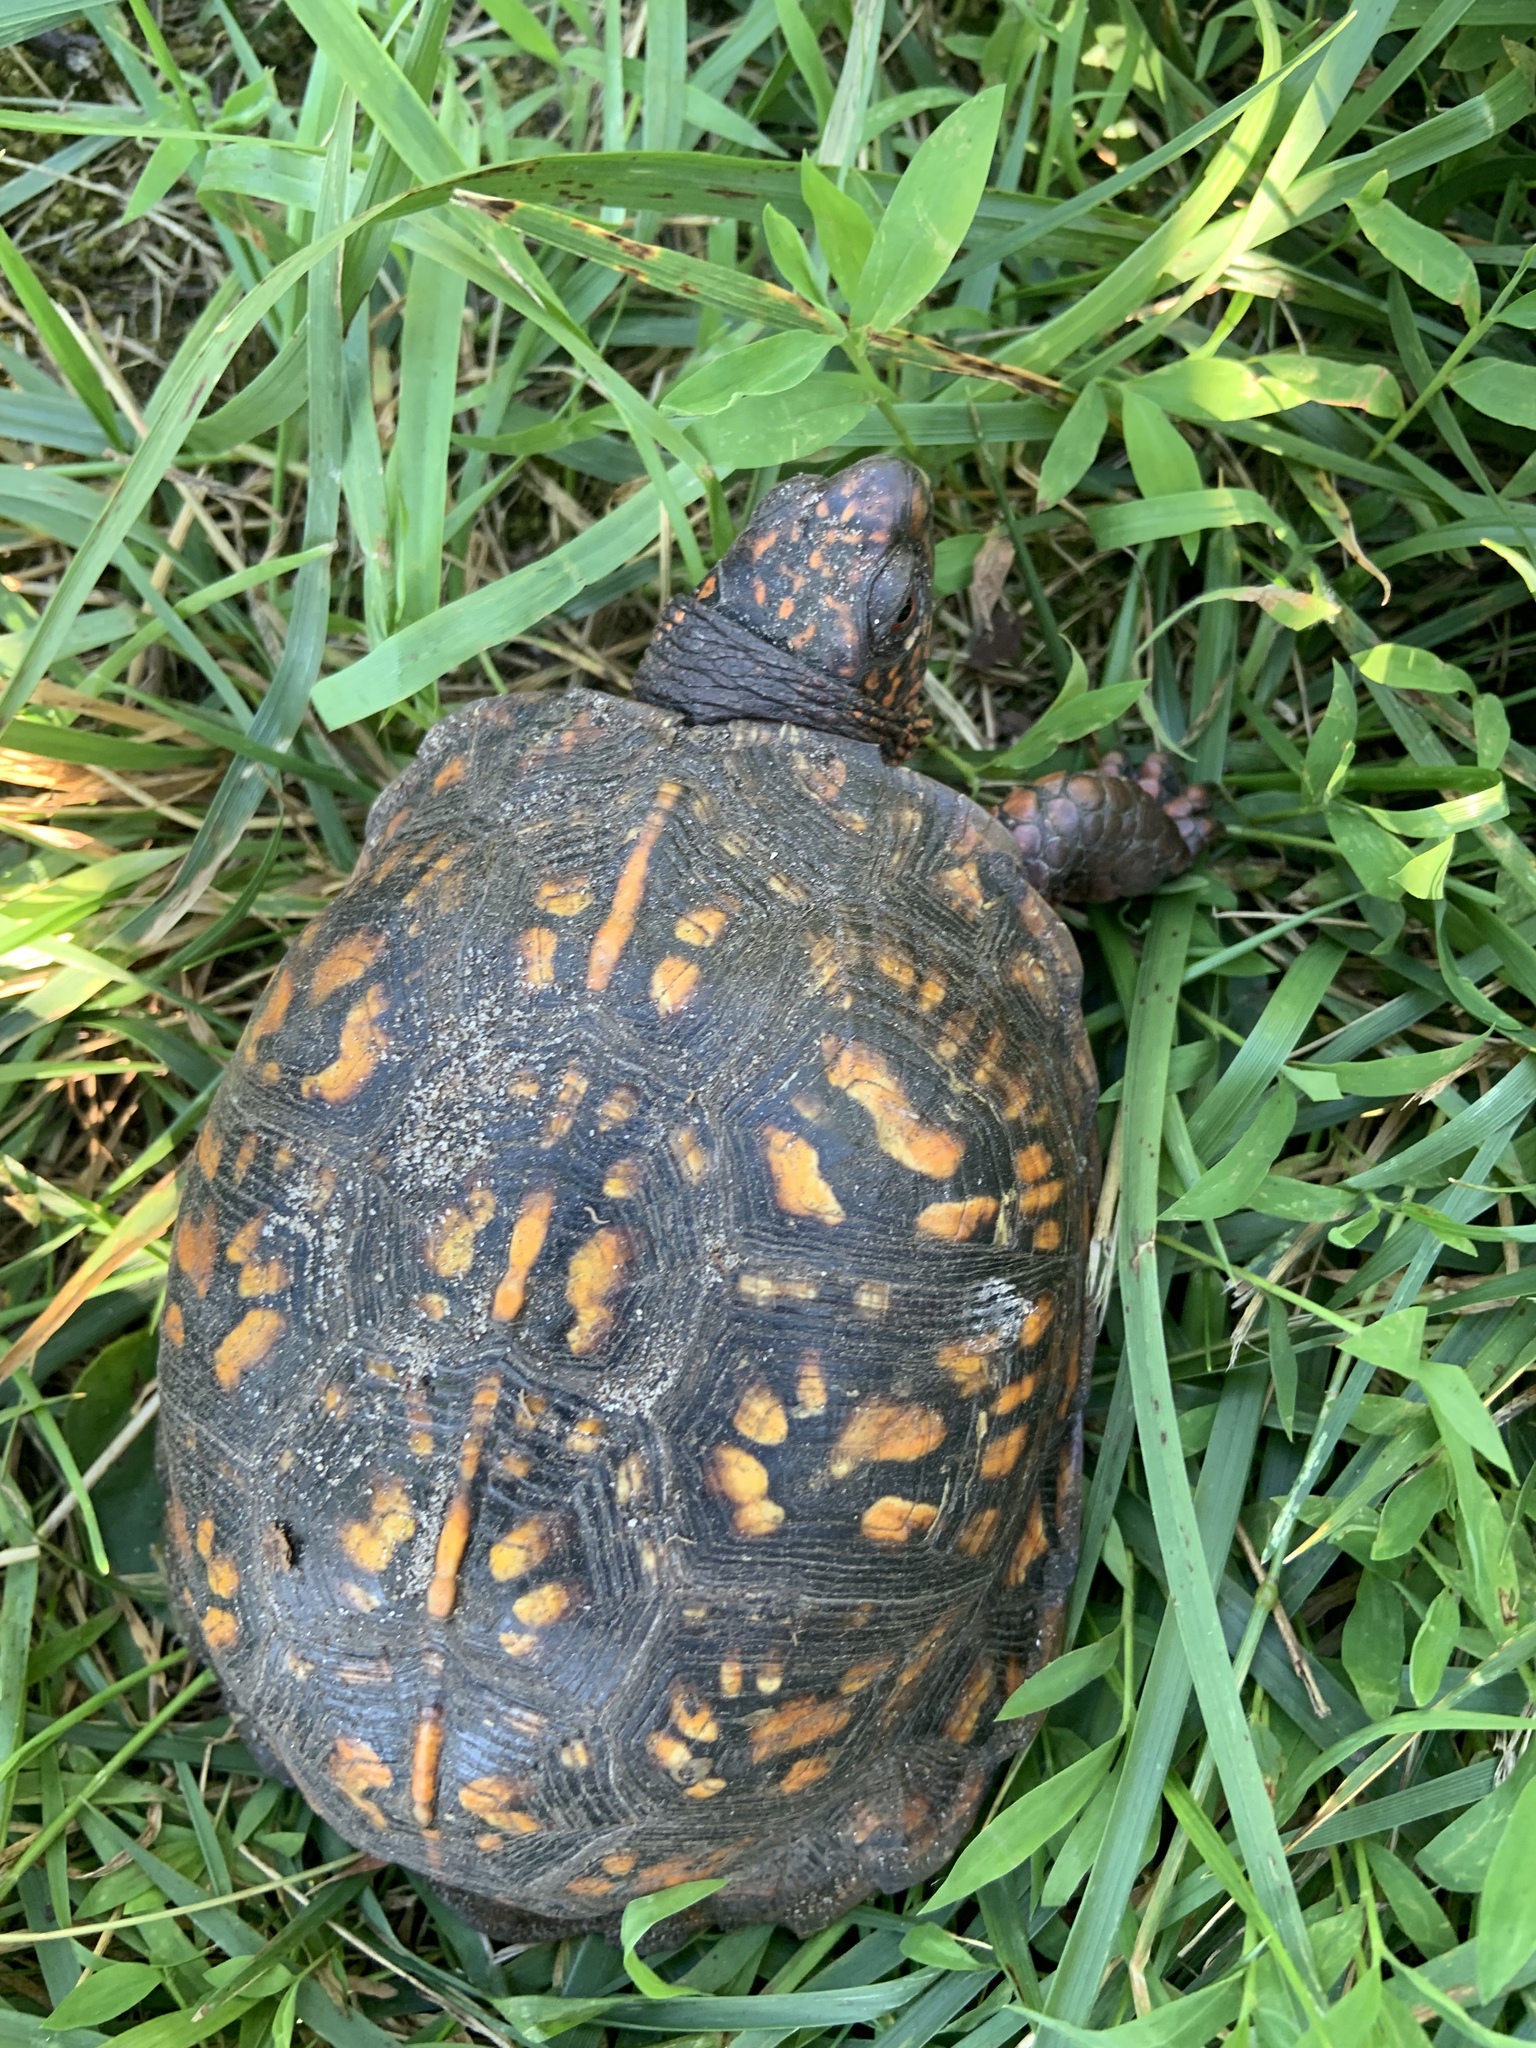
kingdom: Animalia
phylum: Chordata
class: Testudines
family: Emydidae
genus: Terrapene
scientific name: Terrapene carolina
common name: Common box turtle
